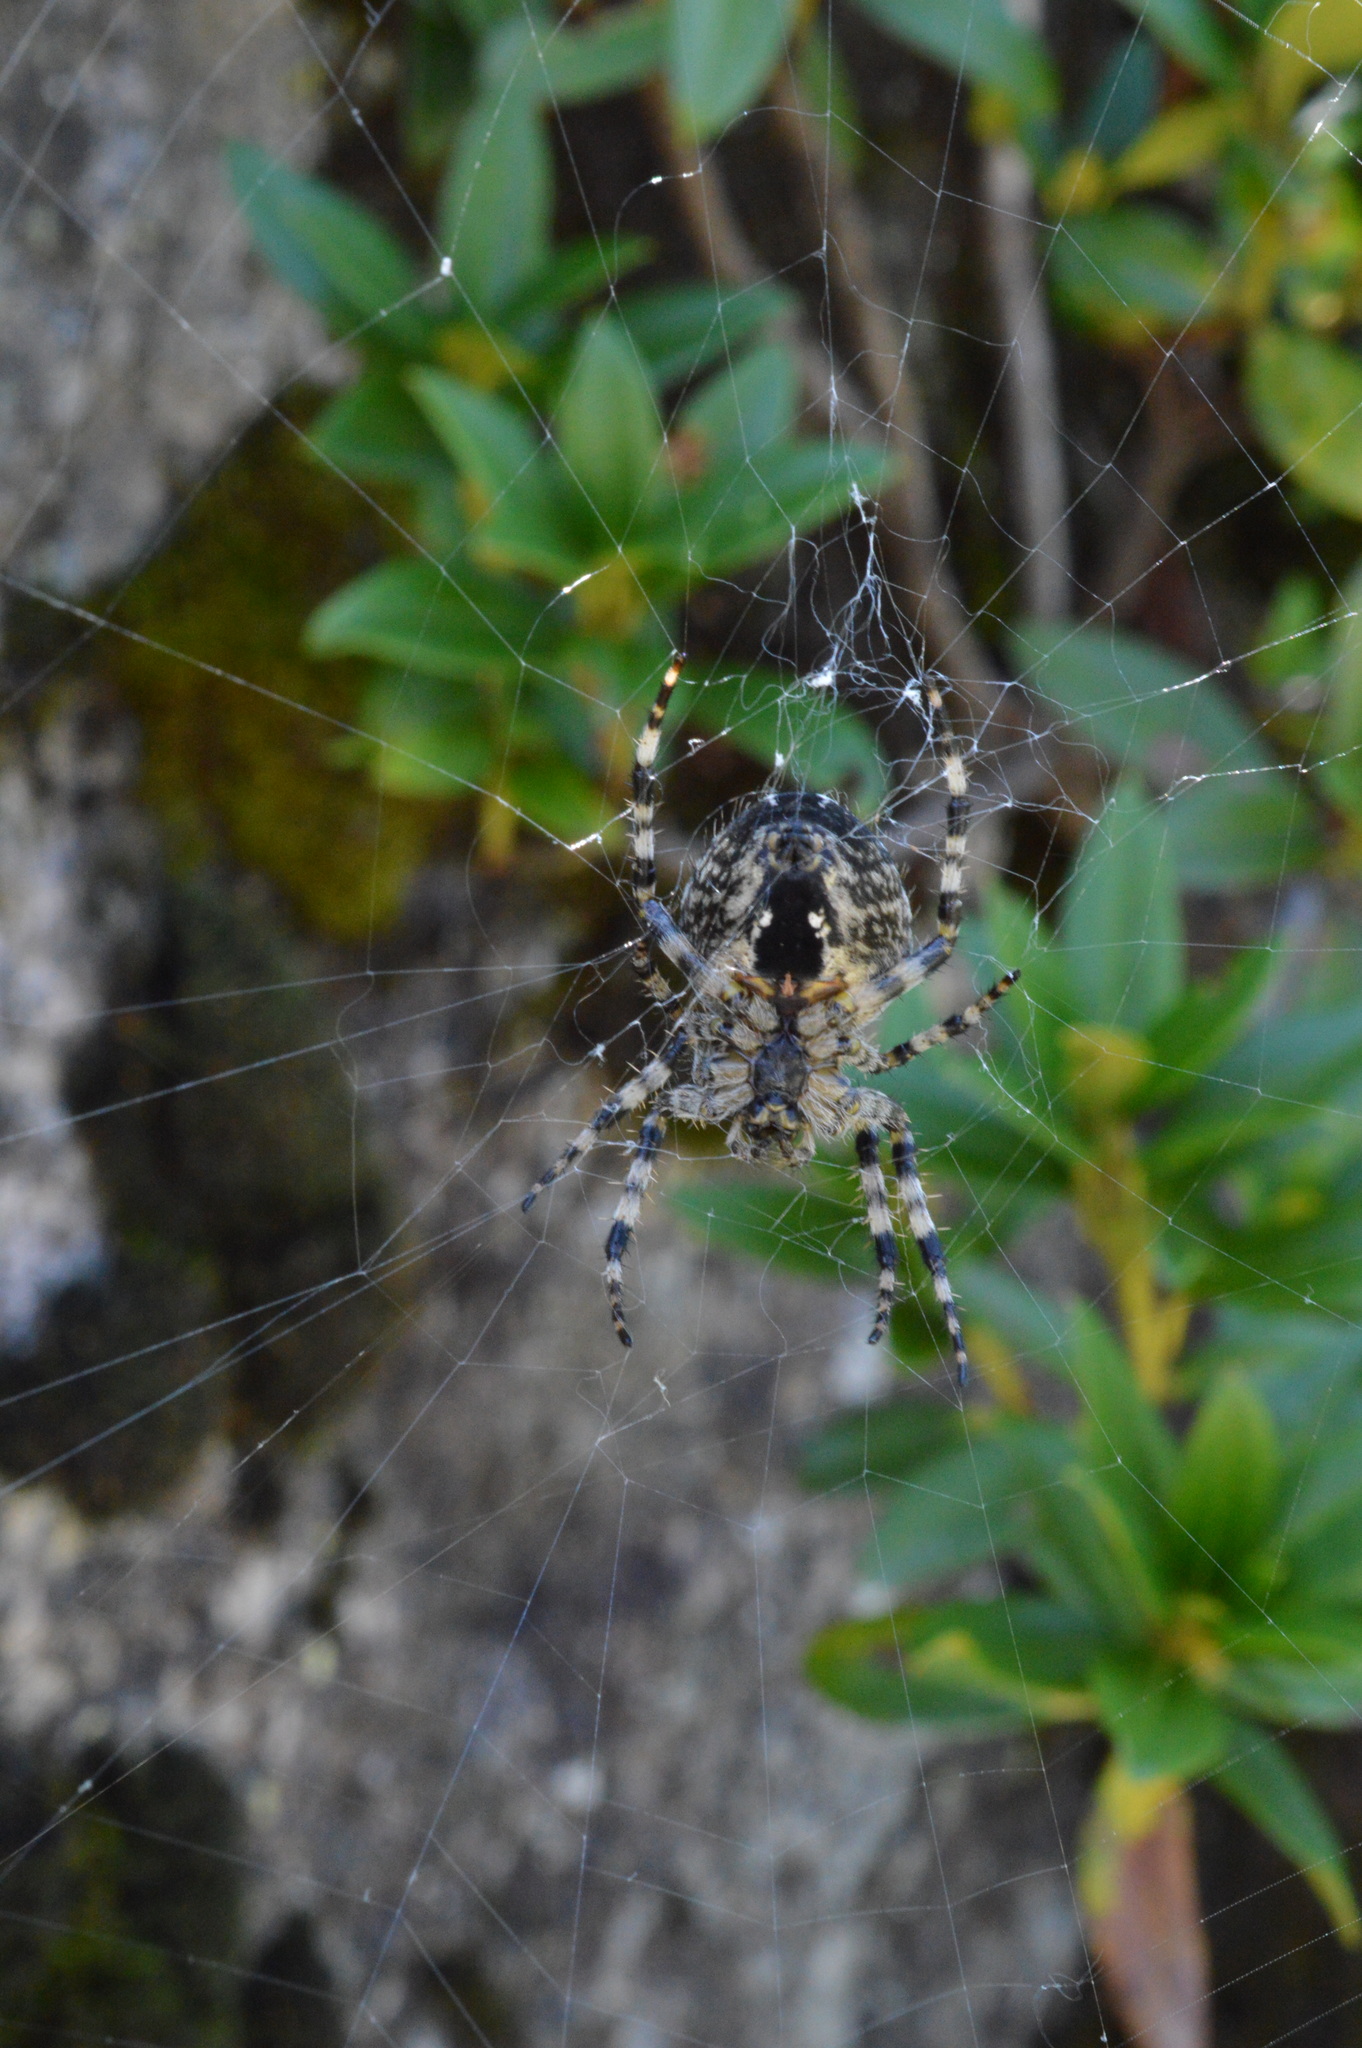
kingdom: Animalia
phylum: Arthropoda
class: Arachnida
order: Araneae
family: Araneidae
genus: Araneus
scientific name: Araneus diadematus
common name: Cross orbweaver
